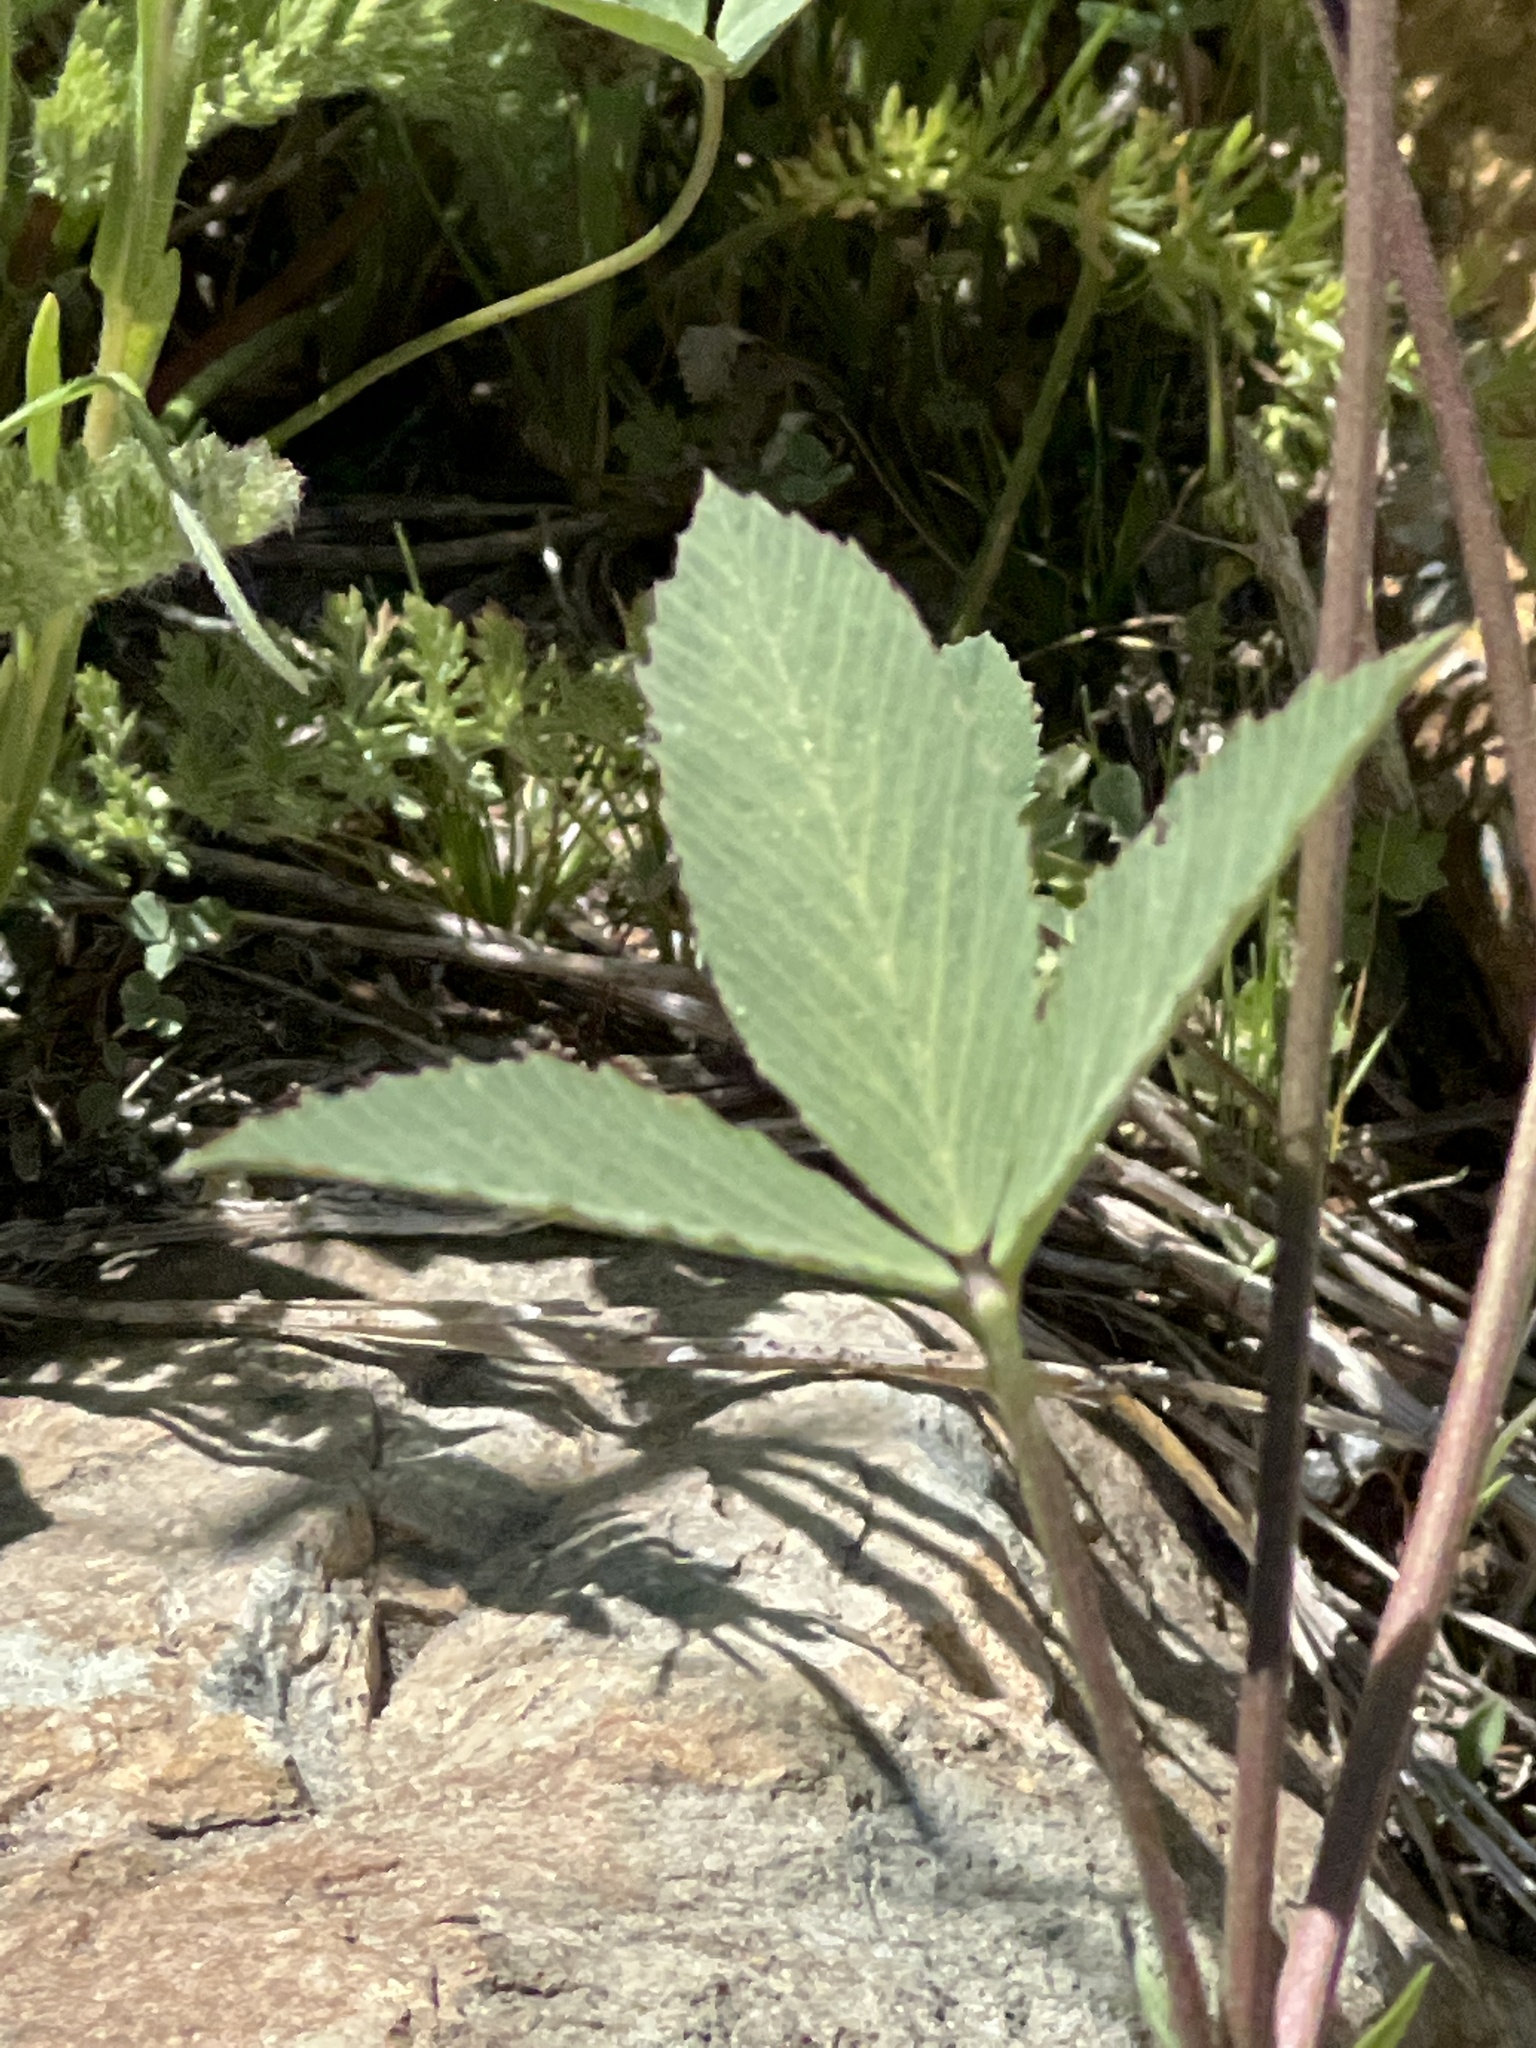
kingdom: Plantae
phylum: Tracheophyta
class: Magnoliopsida
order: Fabales
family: Fabaceae
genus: Trifolium
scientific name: Trifolium productum
